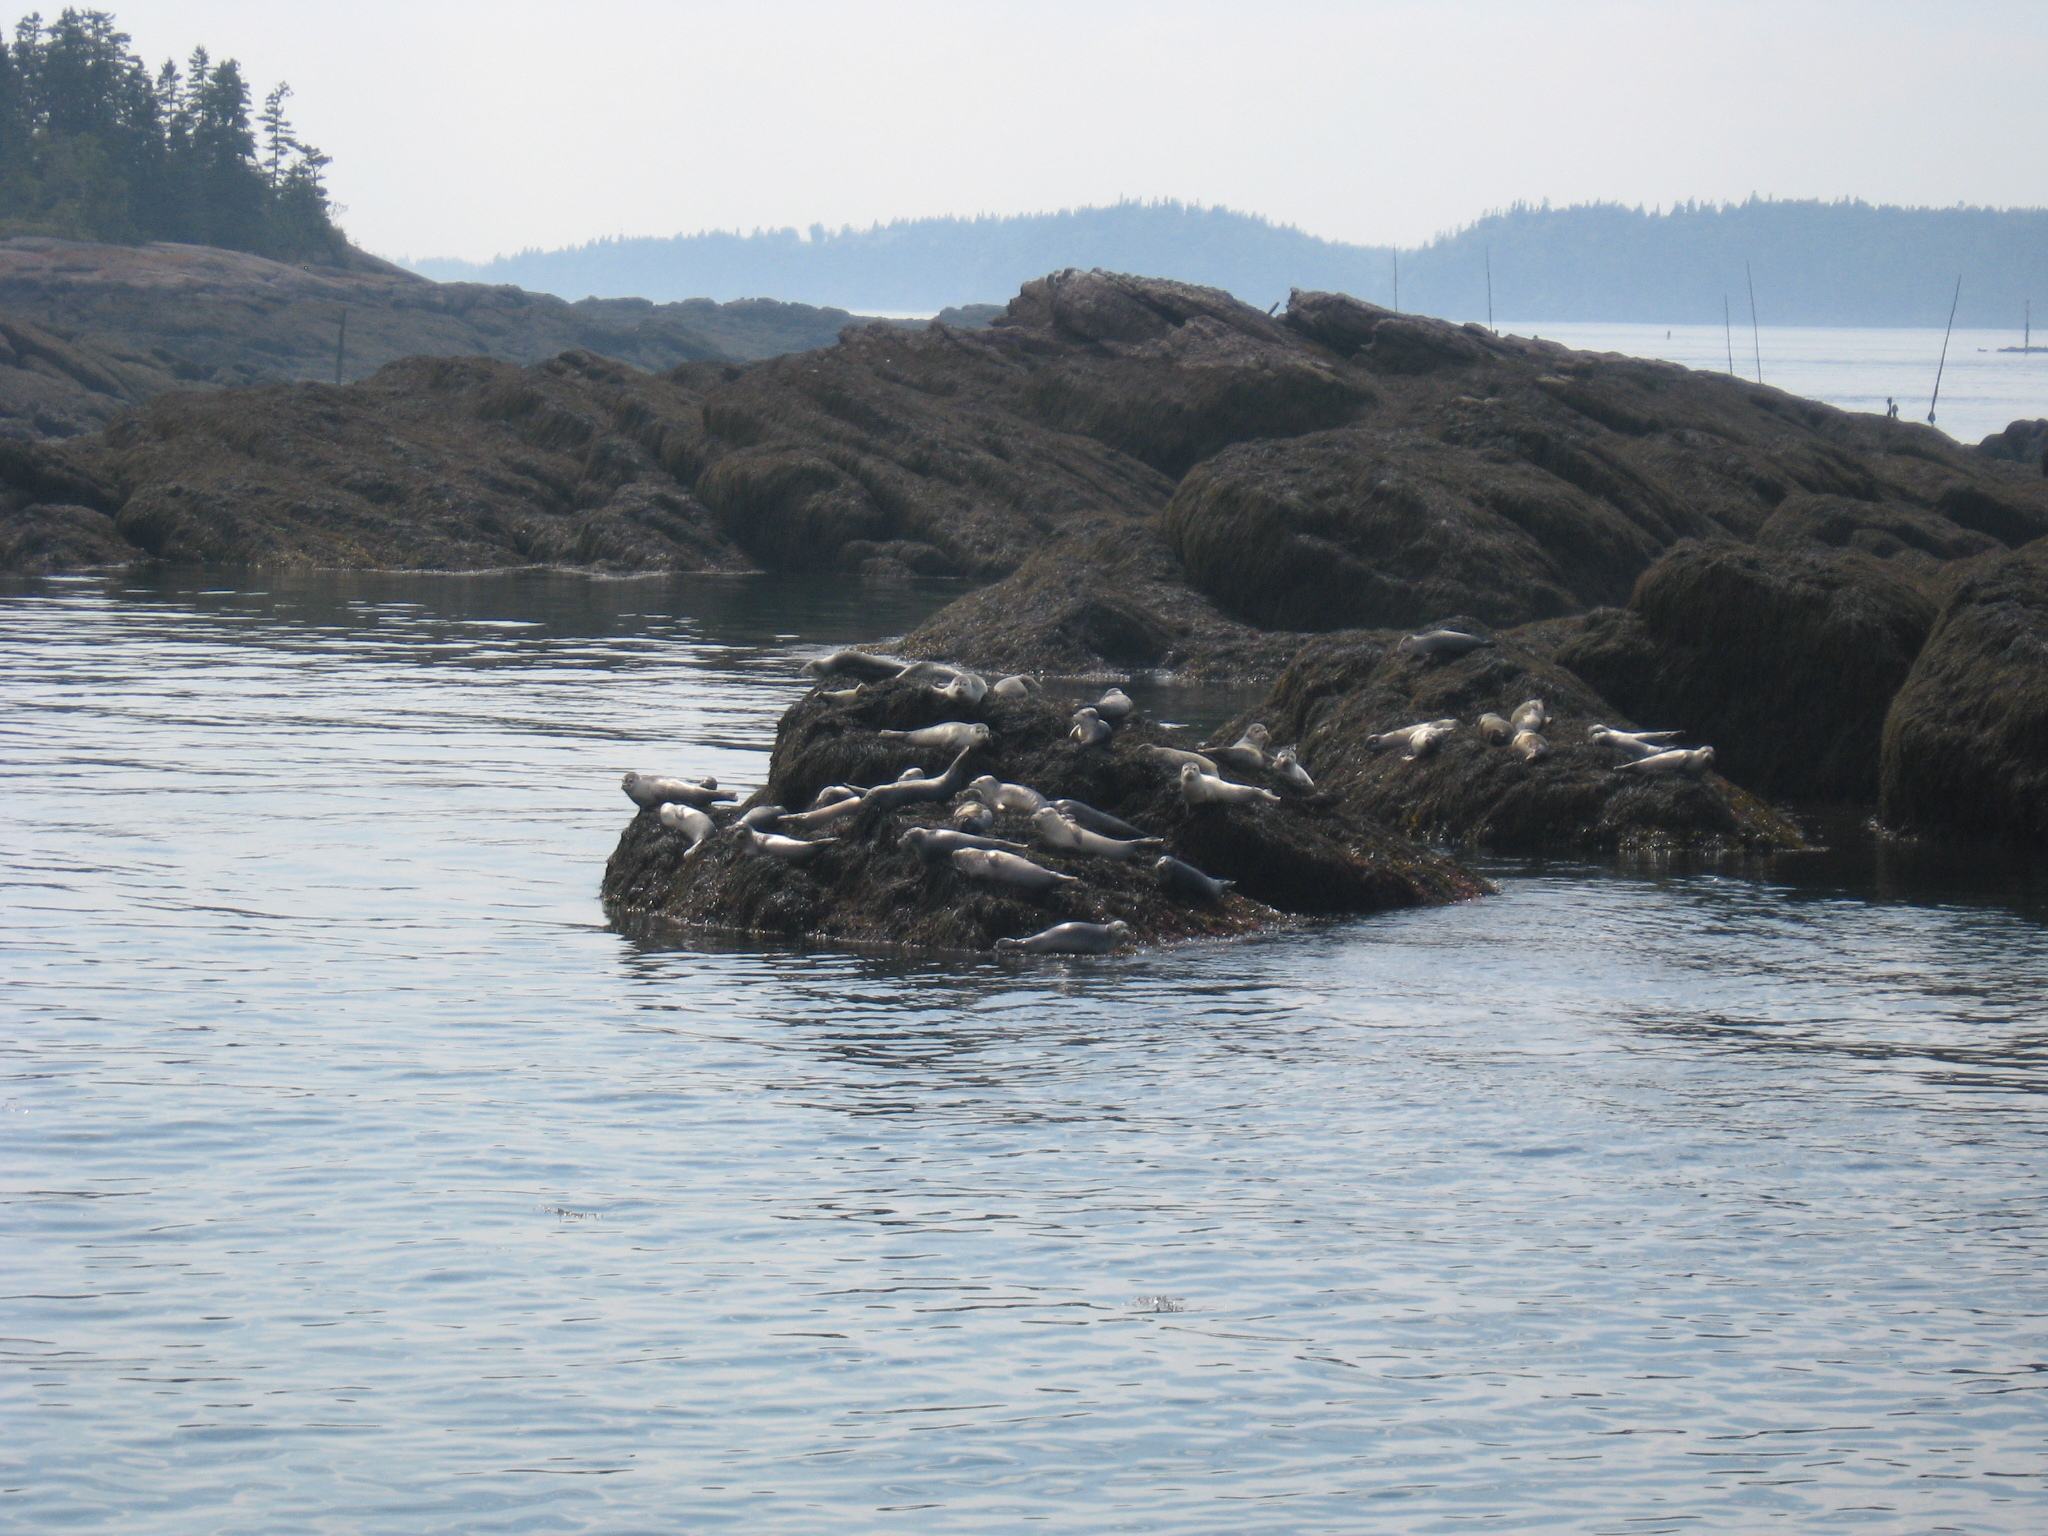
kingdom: Animalia
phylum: Chordata
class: Mammalia
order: Carnivora
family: Phocidae
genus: Phoca
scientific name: Phoca vitulina
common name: Harbor seal
